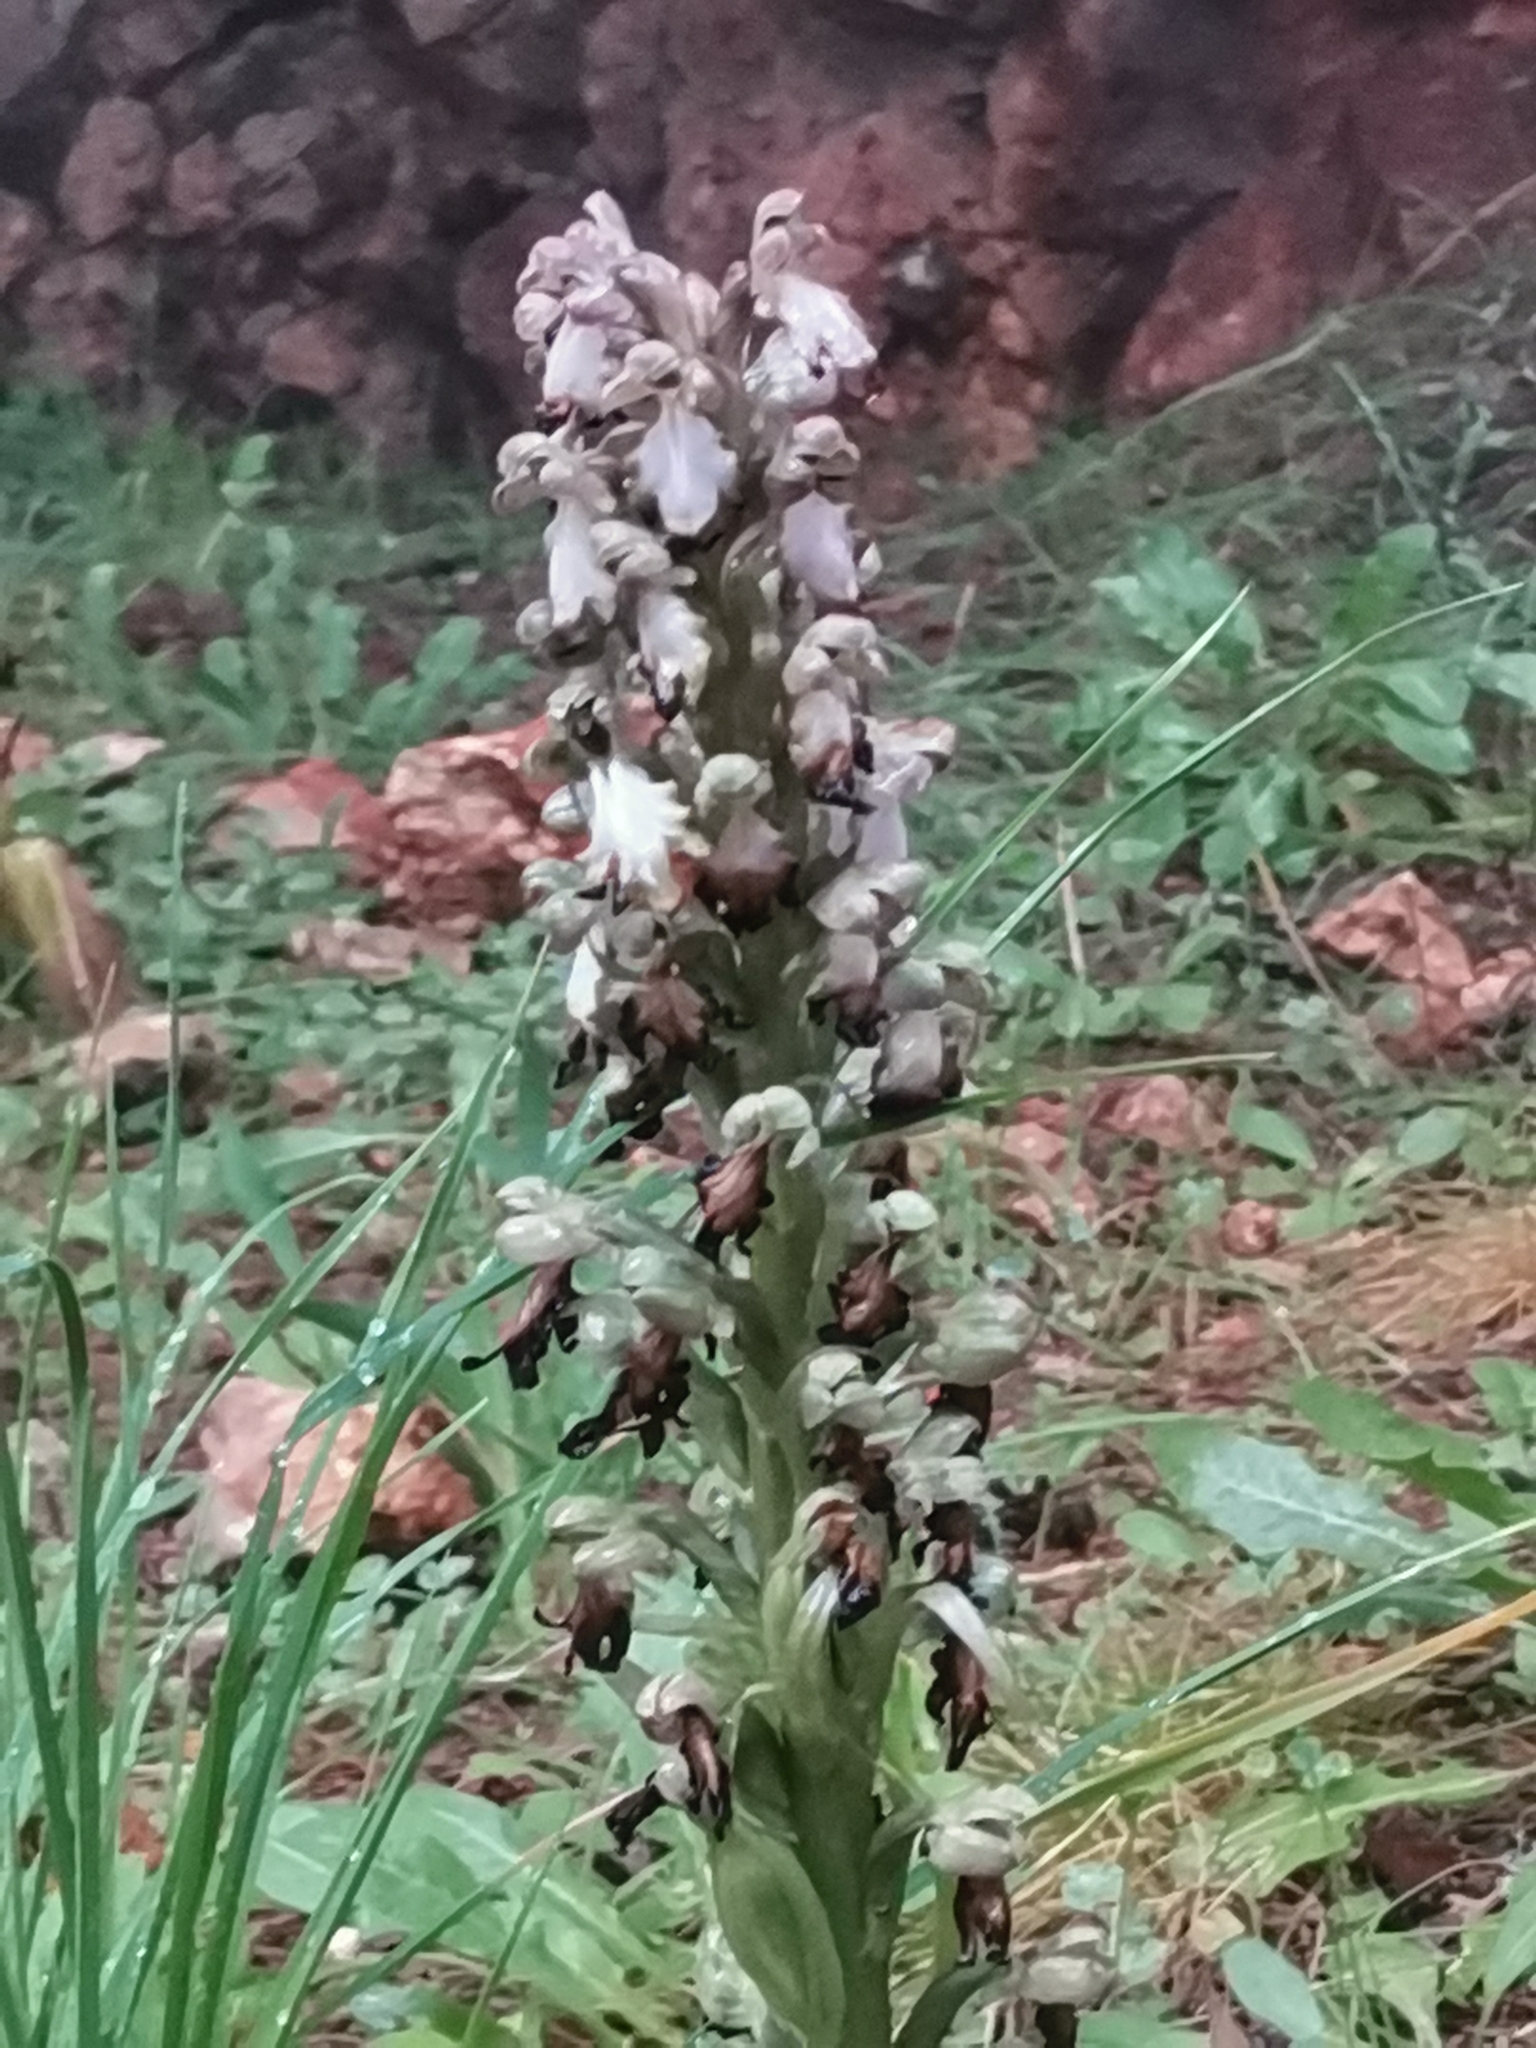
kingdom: Plantae
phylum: Tracheophyta
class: Liliopsida
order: Asparagales
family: Orchidaceae
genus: Himantoglossum
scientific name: Himantoglossum robertianum
